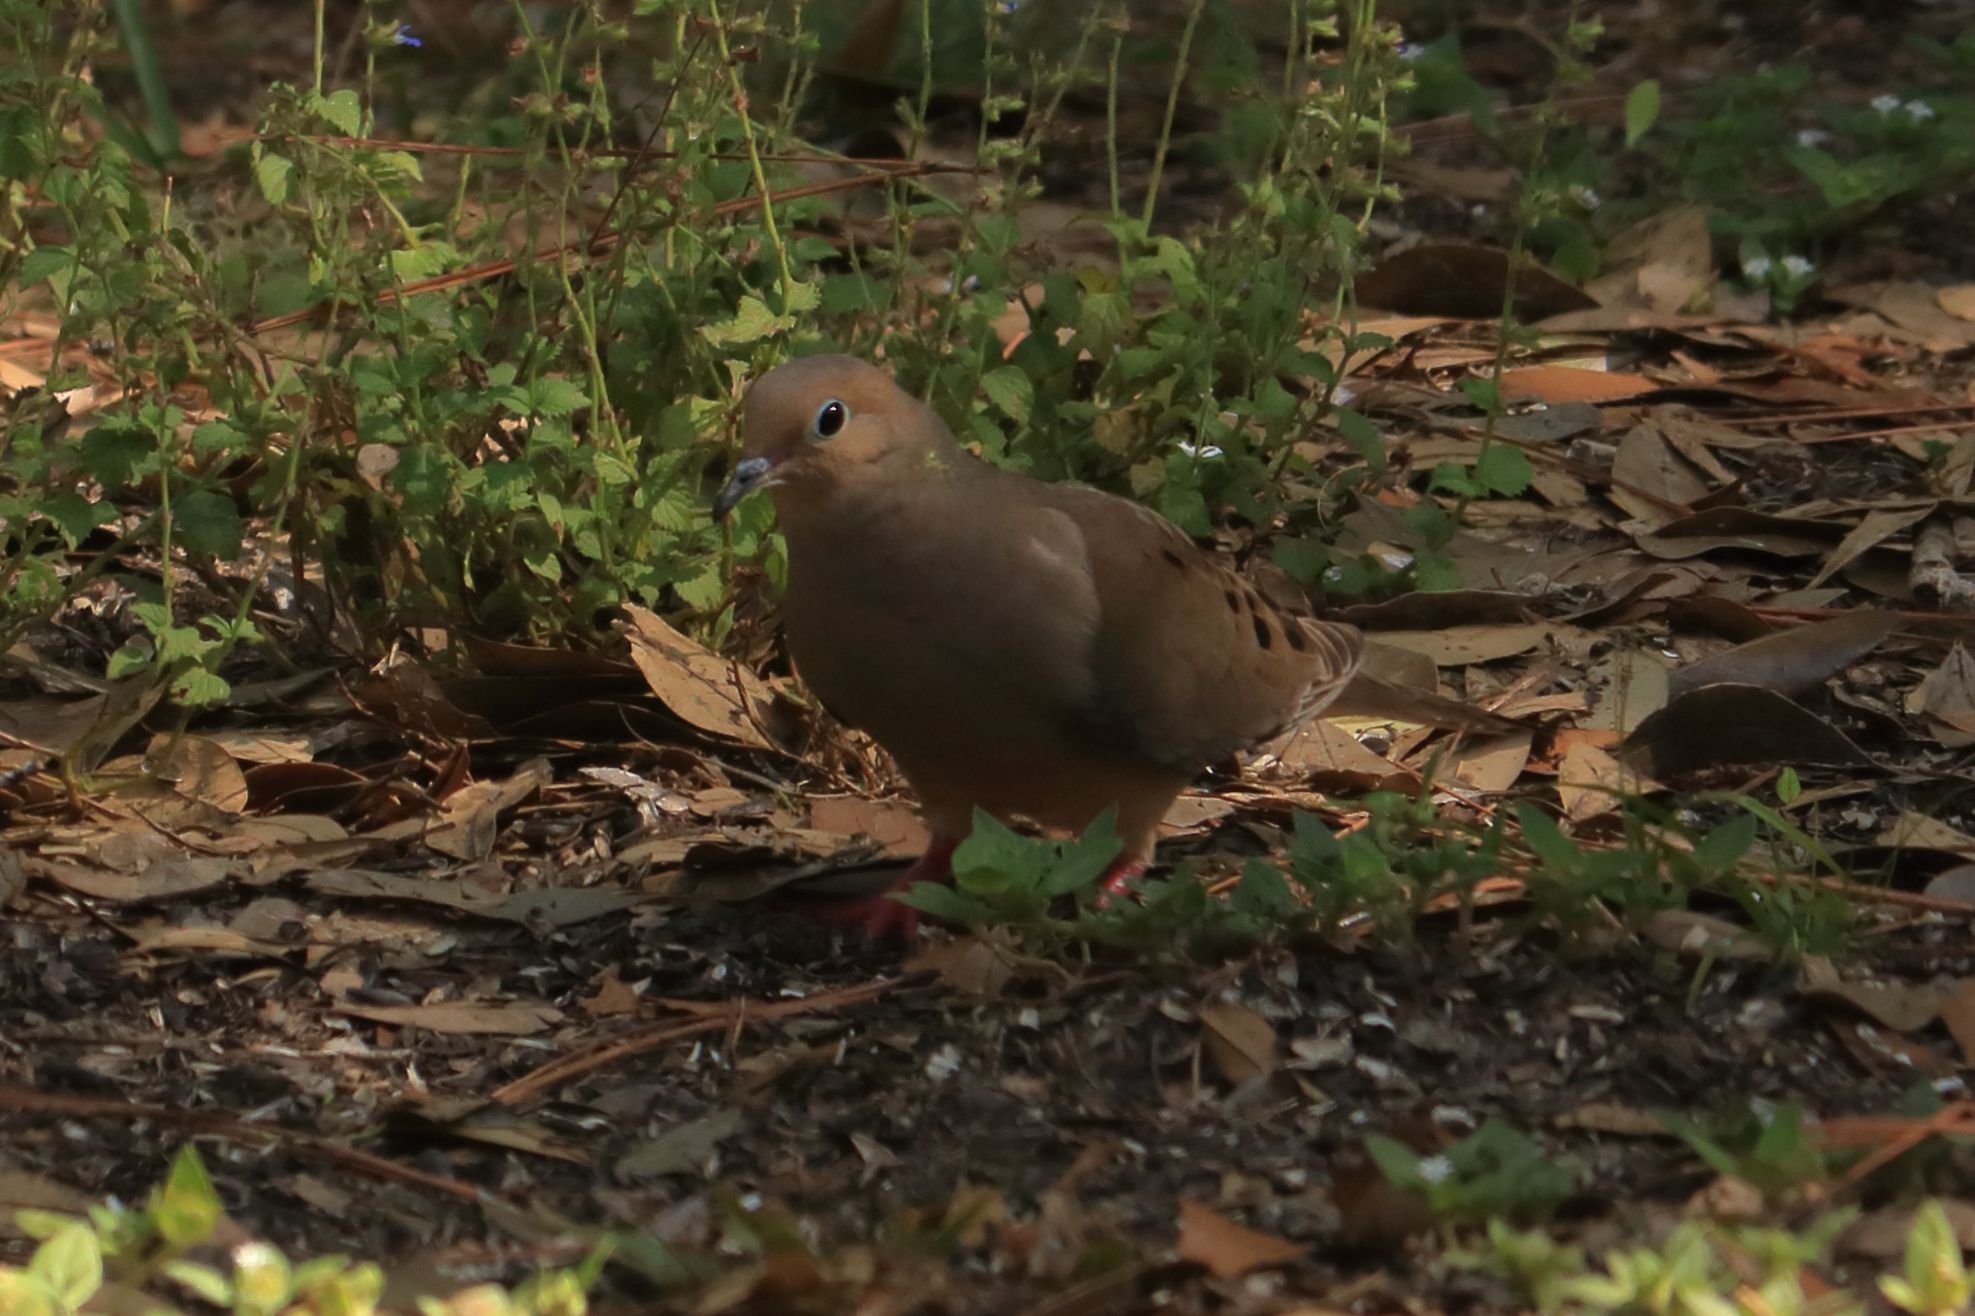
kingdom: Animalia
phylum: Chordata
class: Aves
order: Columbiformes
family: Columbidae
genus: Zenaida
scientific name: Zenaida macroura
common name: Mourning dove
